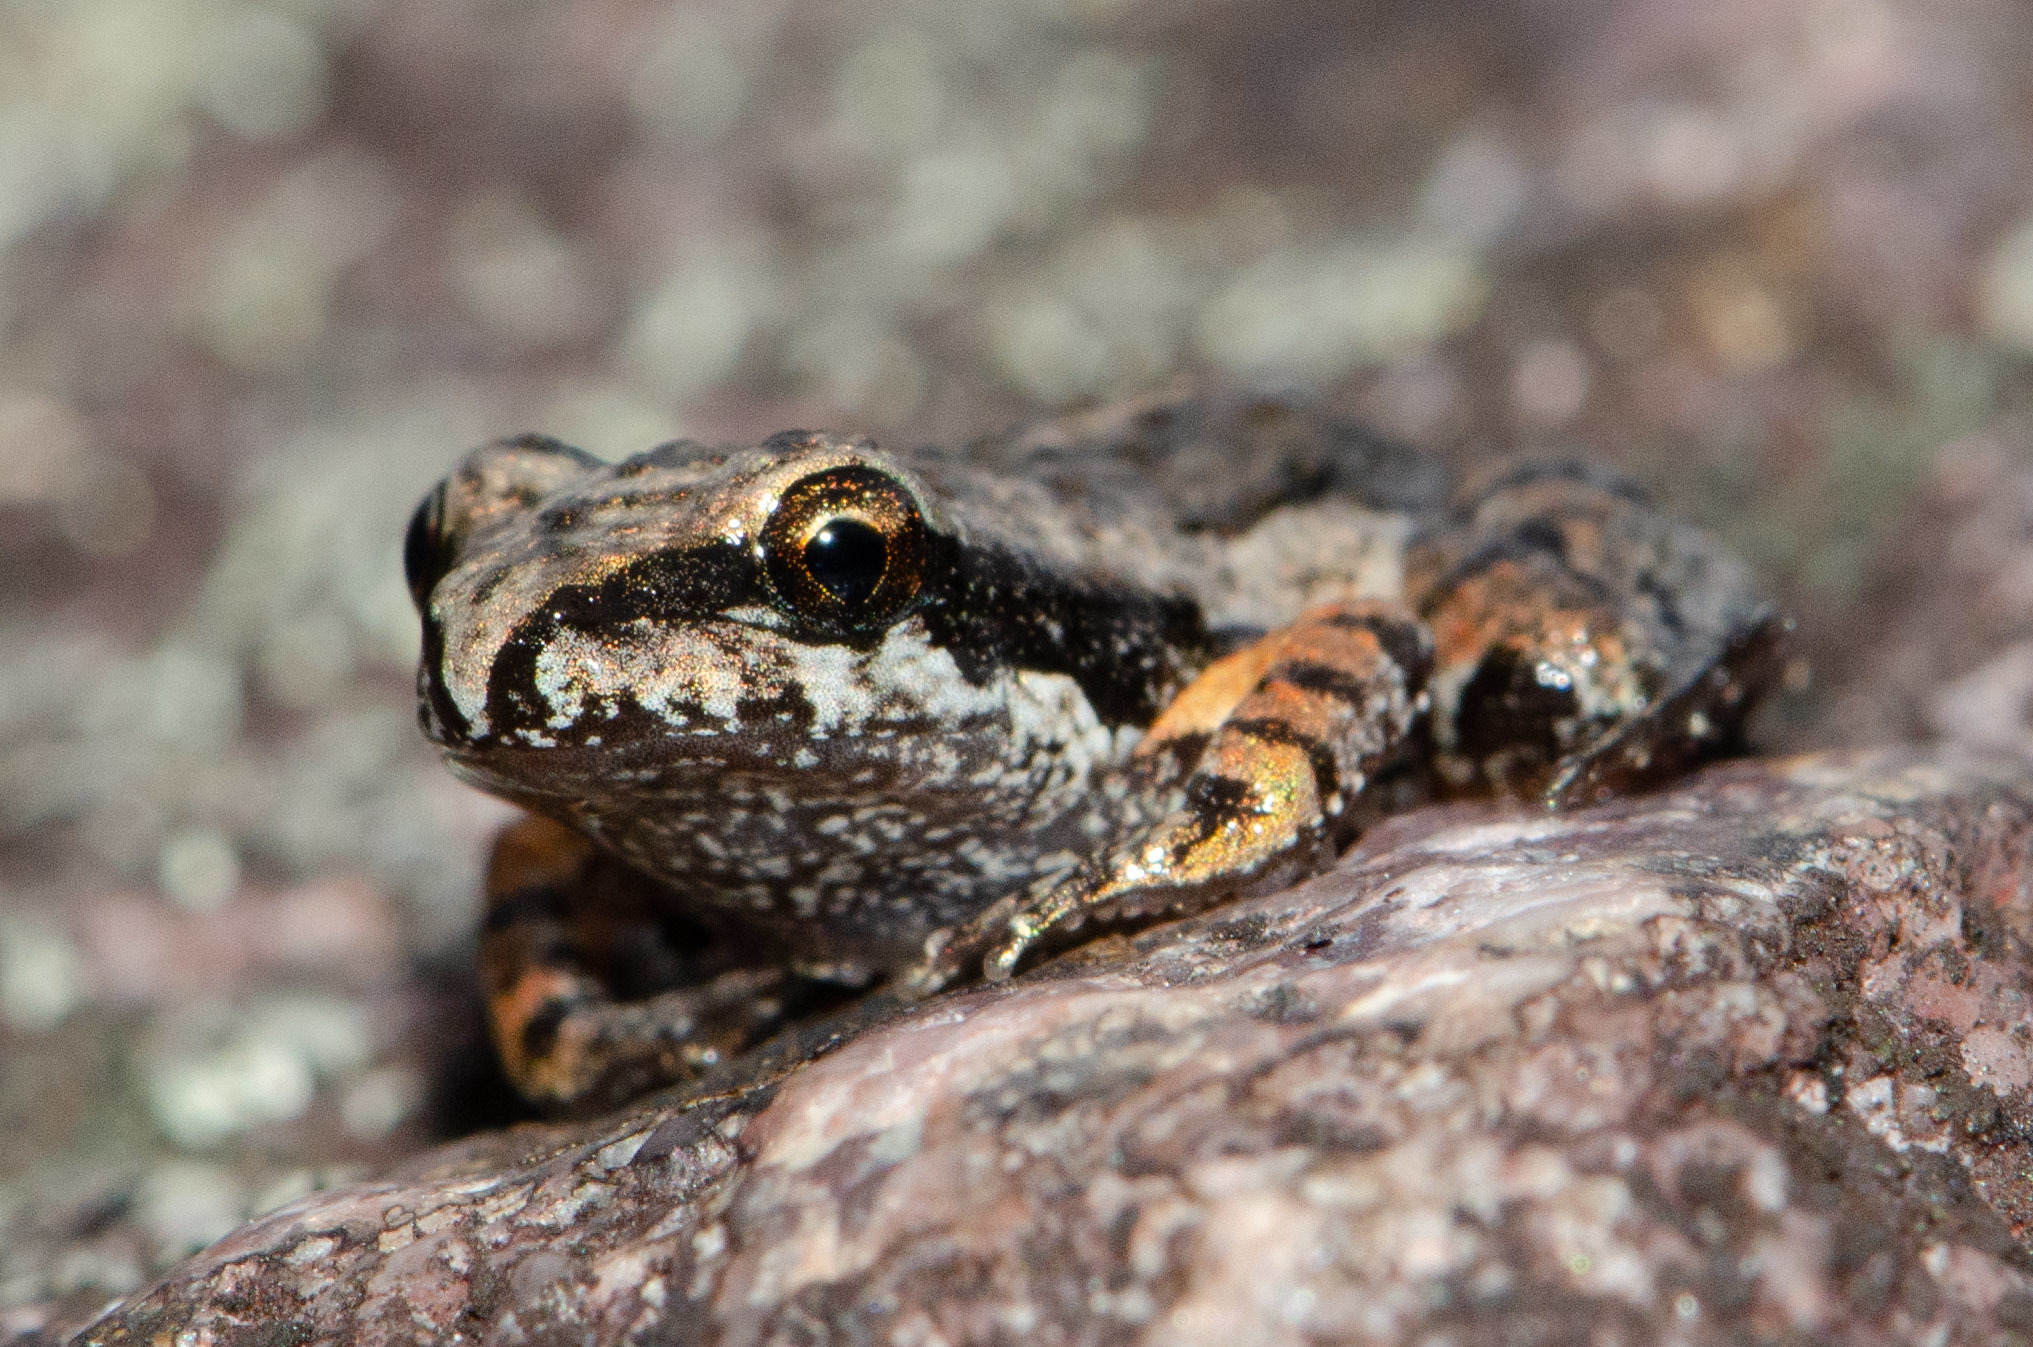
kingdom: Animalia
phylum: Chordata
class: Amphibia
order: Anura
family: Leptodactylidae
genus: Rupirana
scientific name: Rupirana cardosoi
